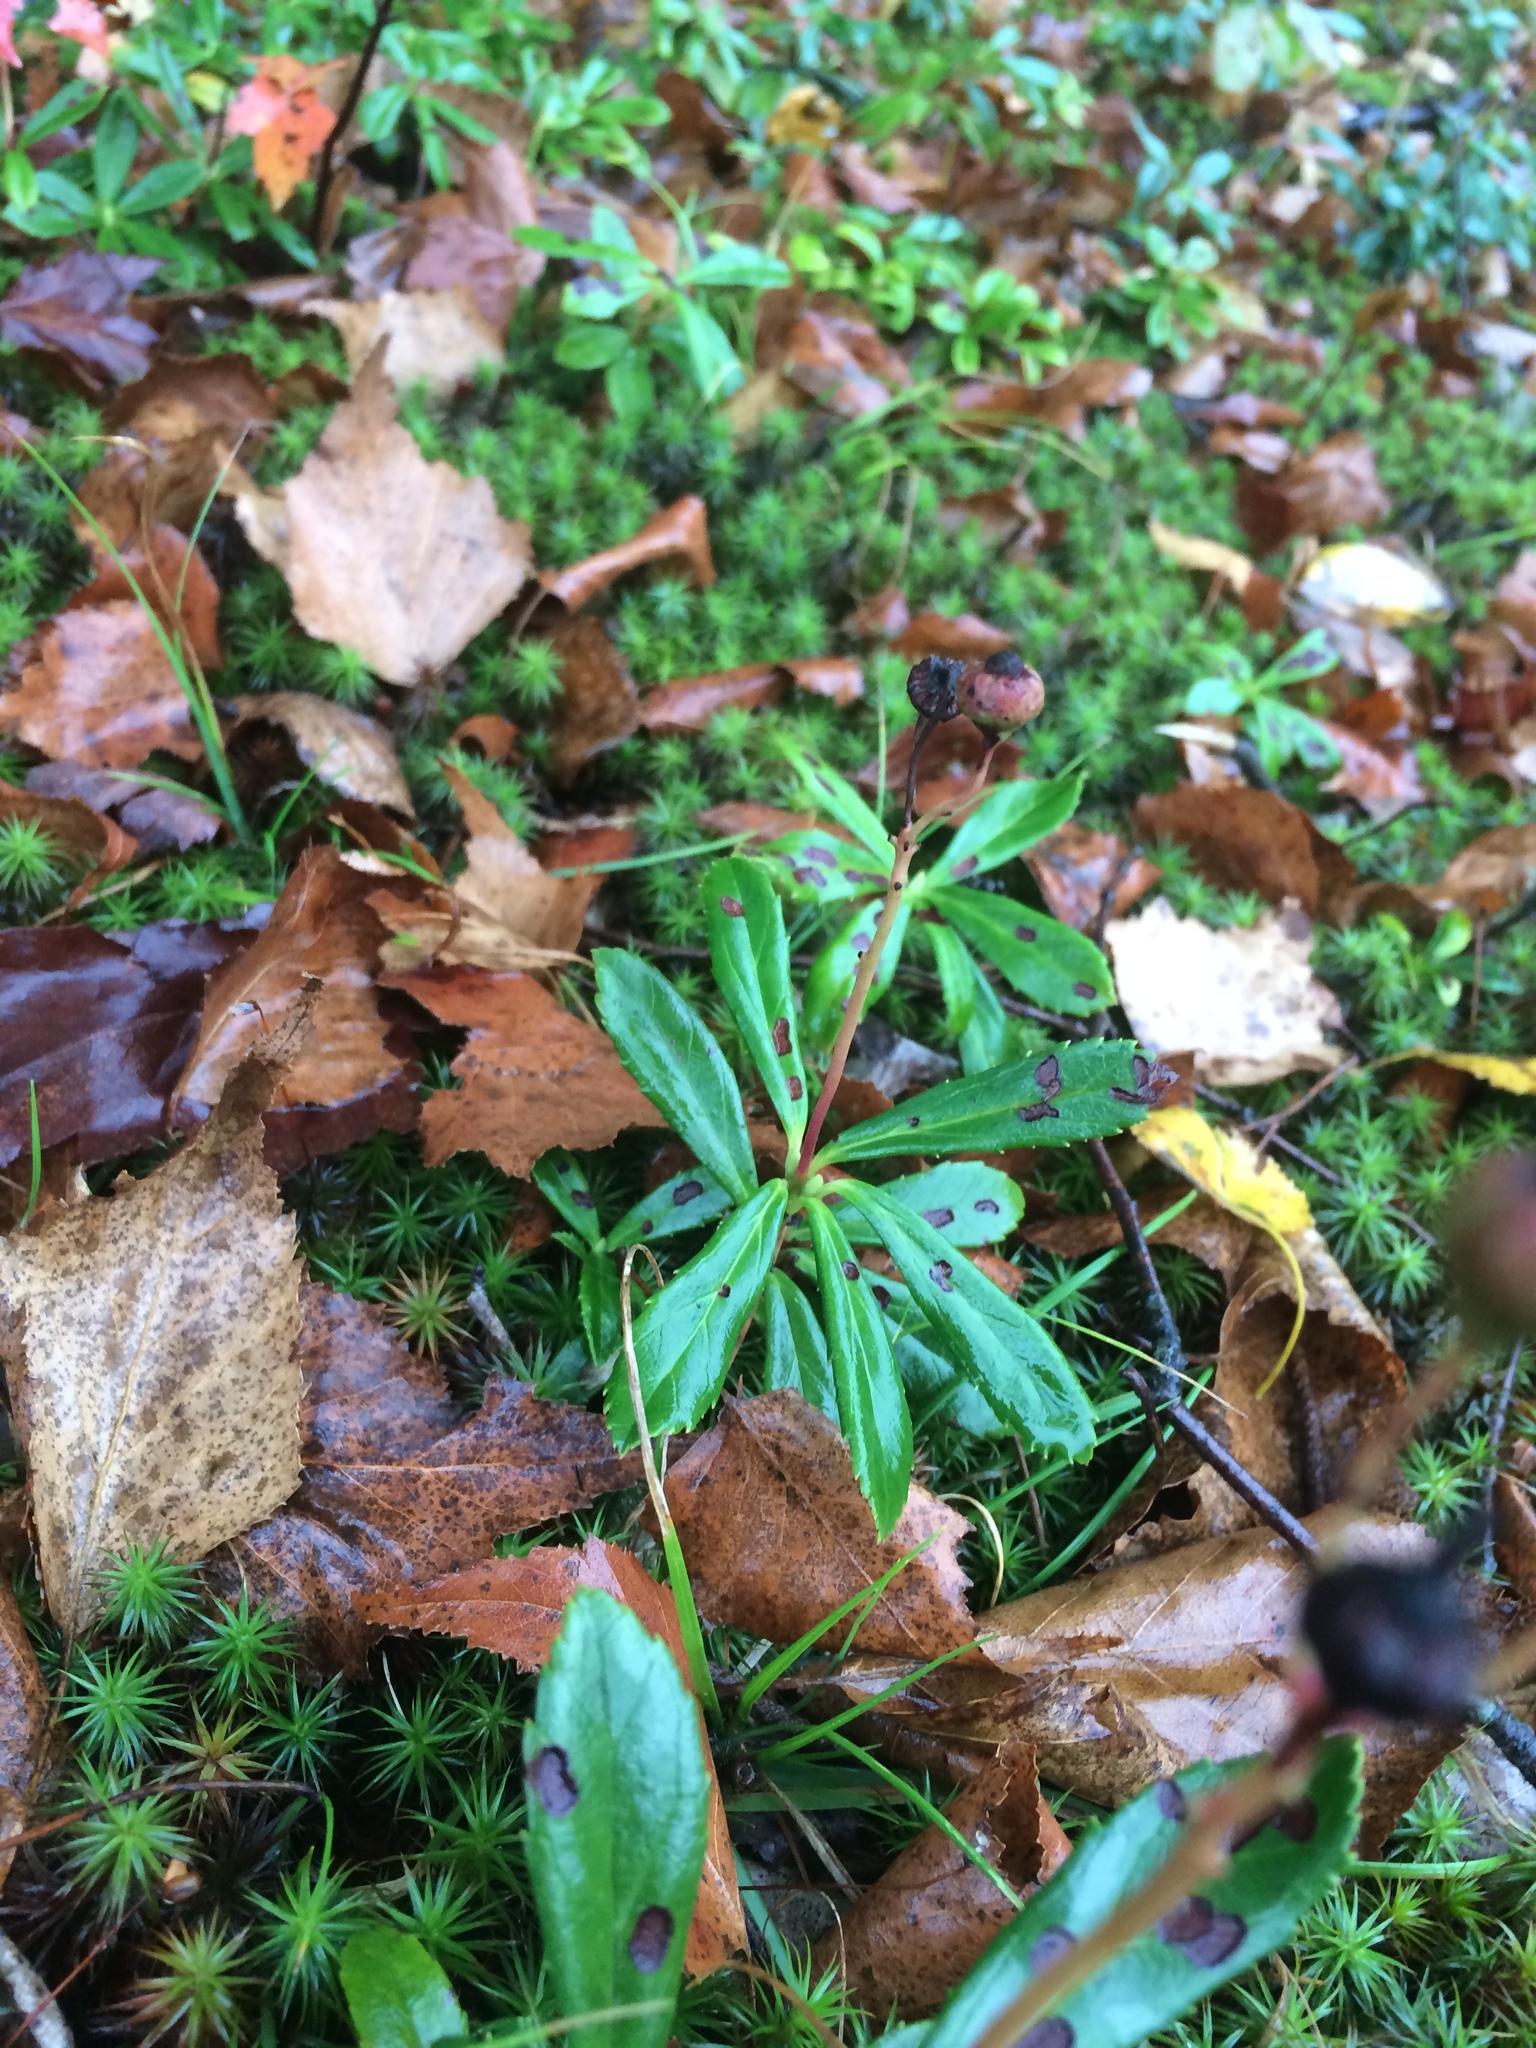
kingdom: Plantae
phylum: Tracheophyta
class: Magnoliopsida
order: Ericales
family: Ericaceae
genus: Chimaphila
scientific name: Chimaphila umbellata
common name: Pipsissewa
